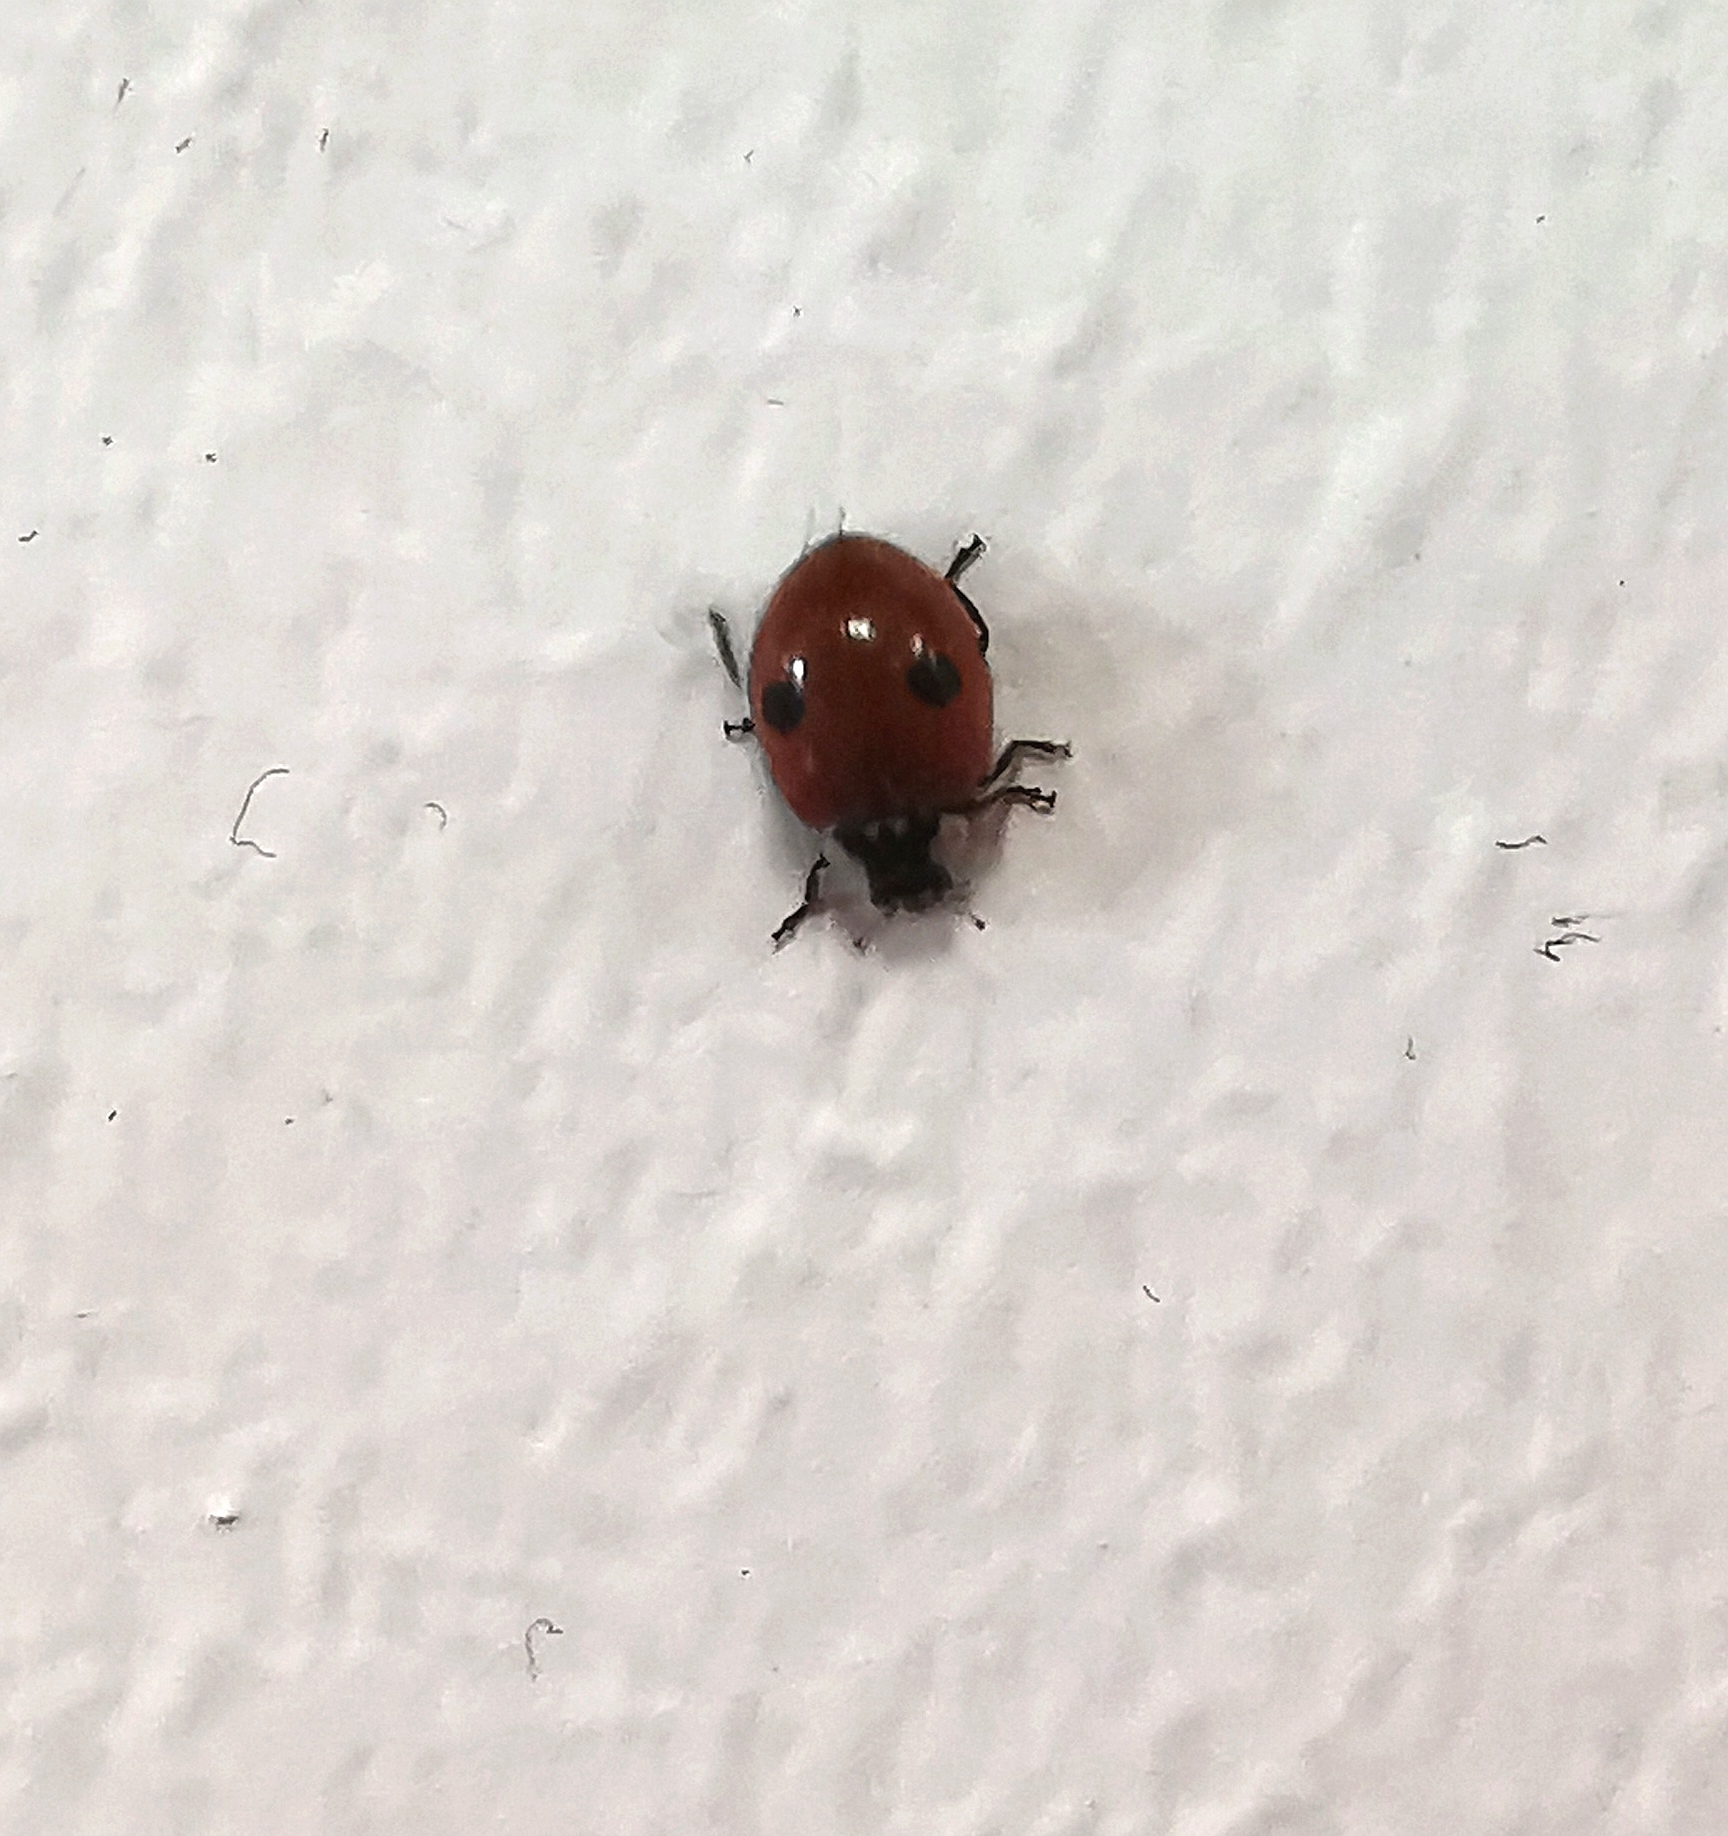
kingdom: Animalia
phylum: Arthropoda
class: Insecta
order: Coleoptera
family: Coccinellidae
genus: Adalia
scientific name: Adalia bipunctata
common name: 2-spot ladybird
